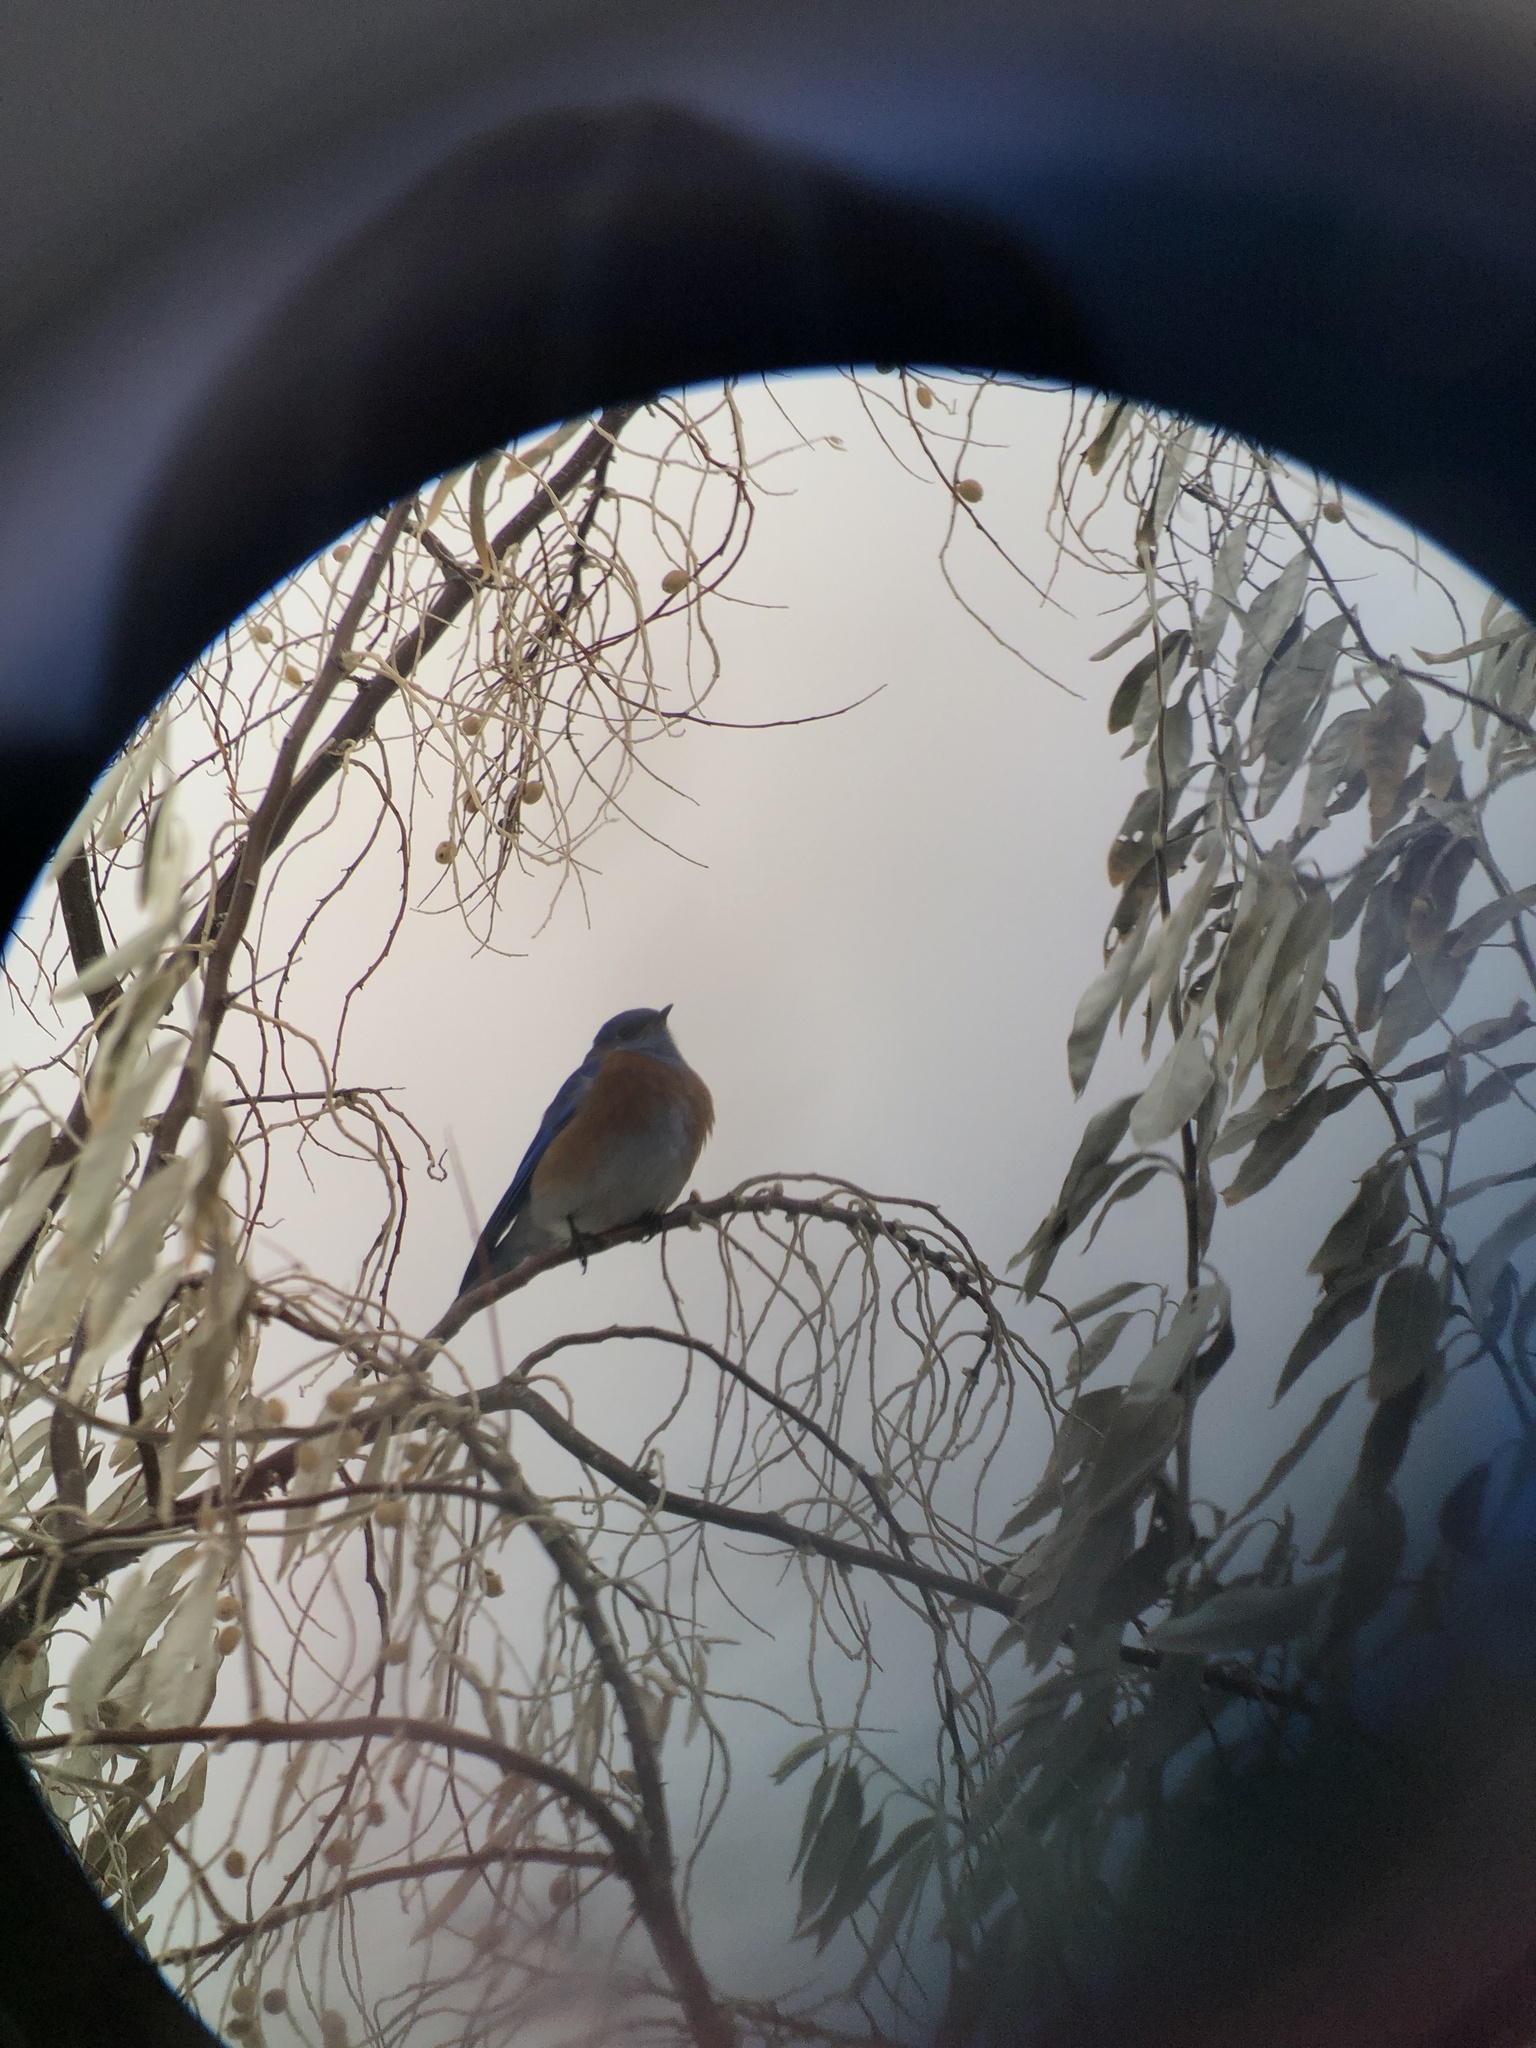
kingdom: Animalia
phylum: Chordata
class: Aves
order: Passeriformes
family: Turdidae
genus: Sialia
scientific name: Sialia mexicana
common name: Western bluebird
